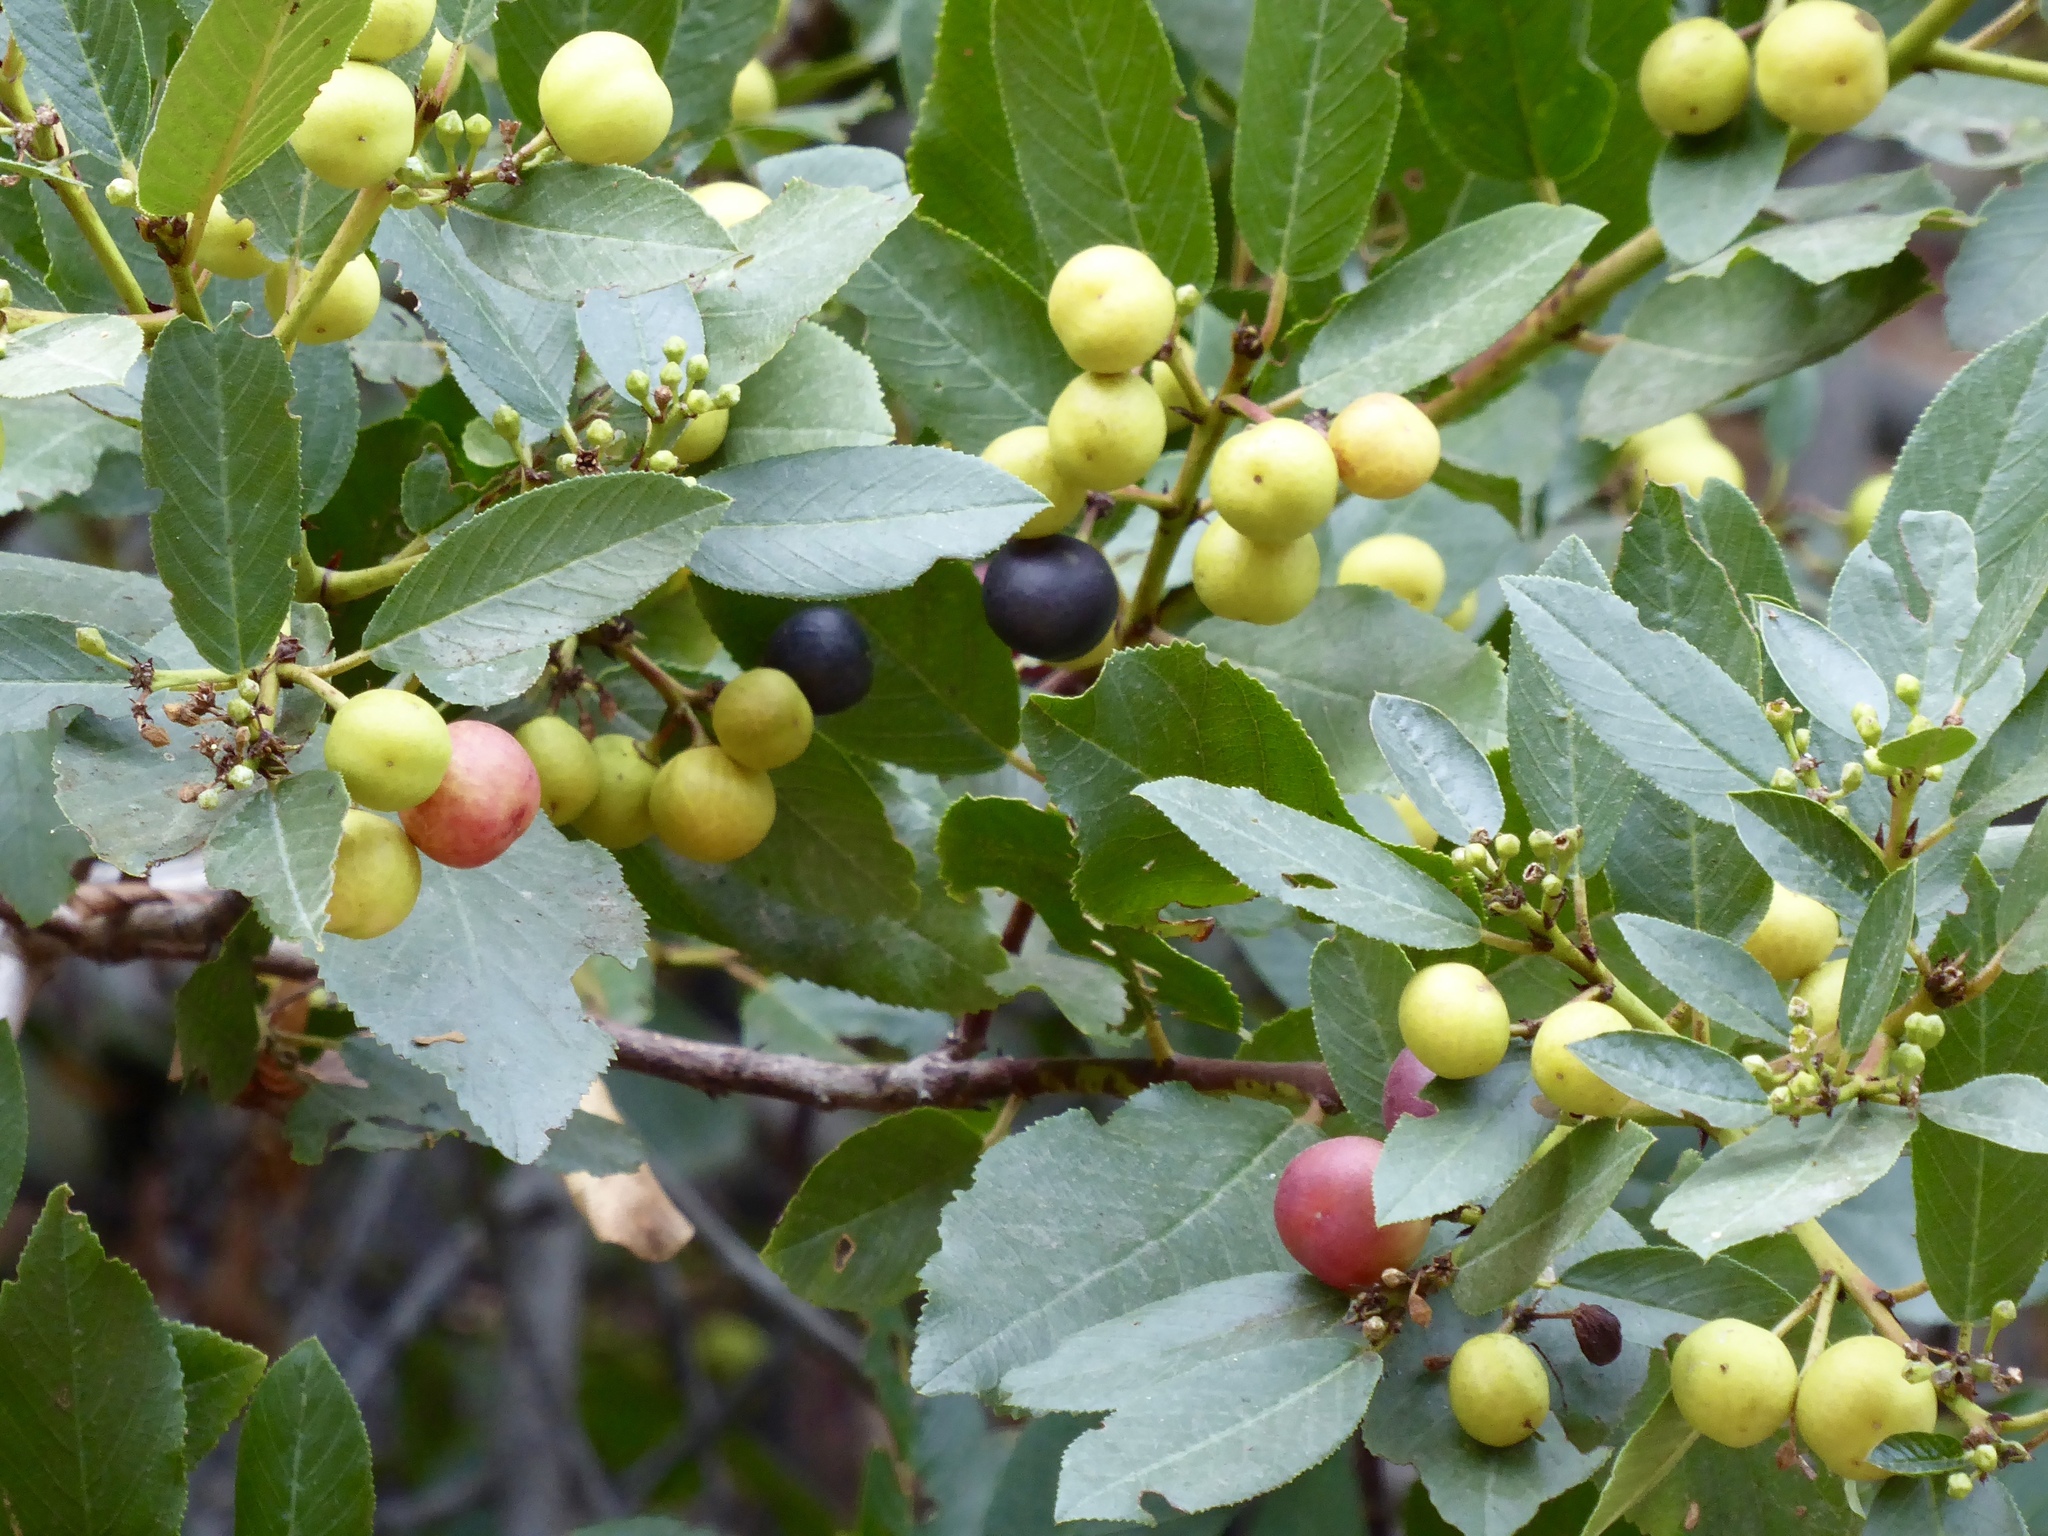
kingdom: Plantae
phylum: Tracheophyta
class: Magnoliopsida
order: Rosales
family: Rhamnaceae
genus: Frangula
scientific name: Frangula californica
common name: California buckthorn
